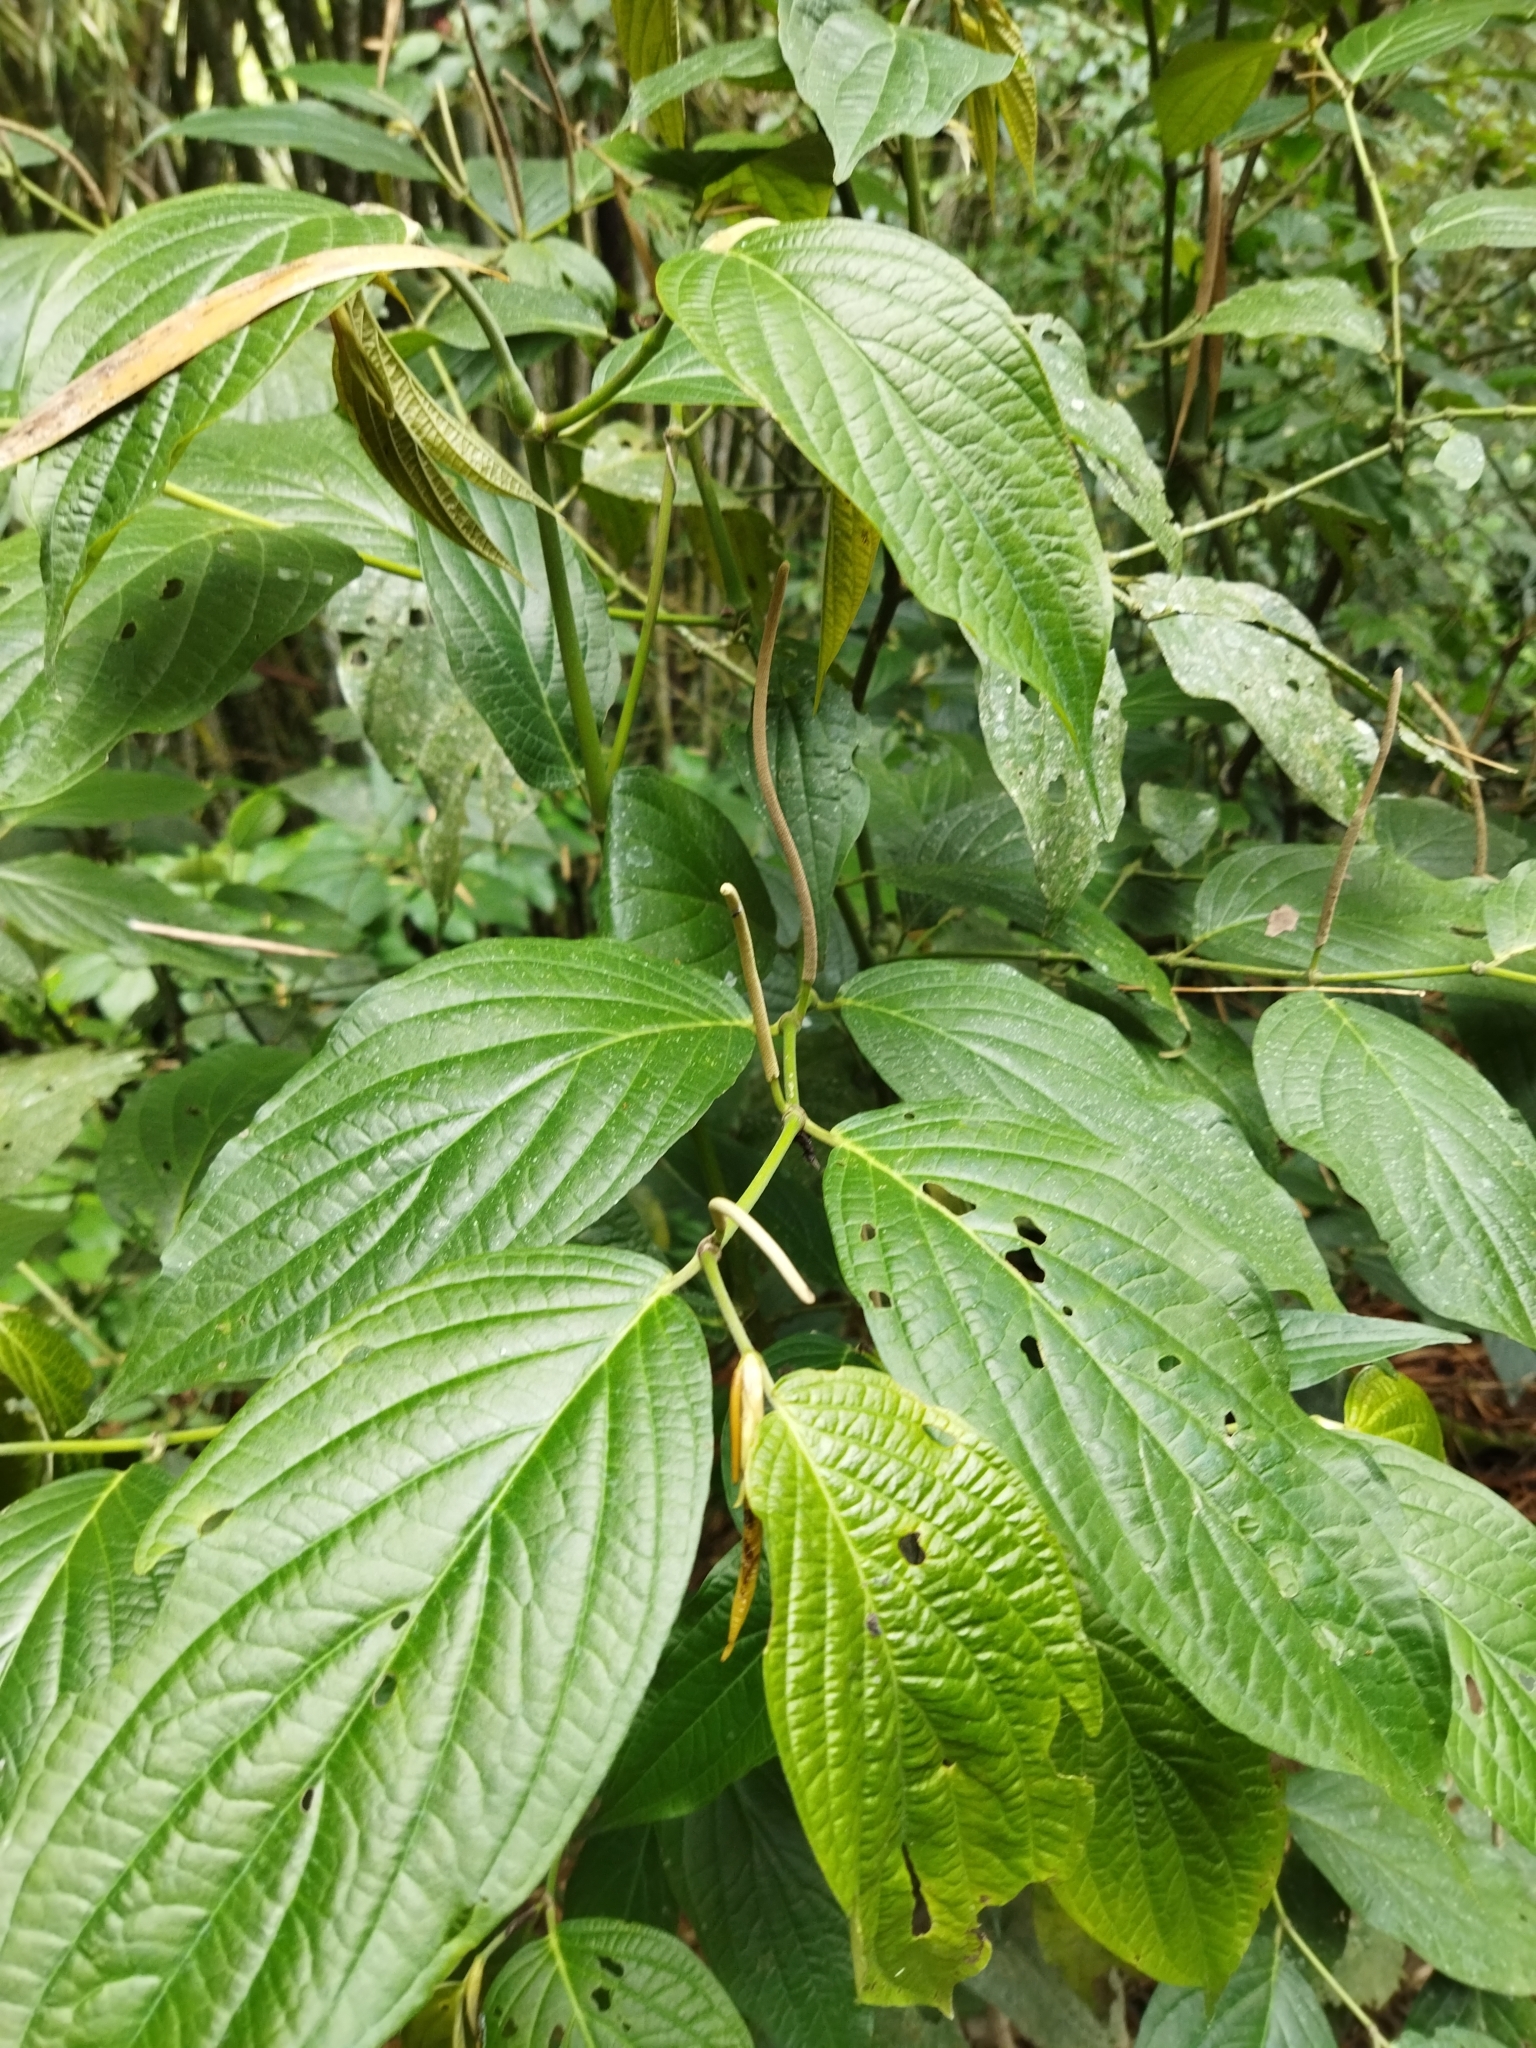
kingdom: Plantae
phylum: Tracheophyta
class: Magnoliopsida
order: Piperales
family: Piperaceae
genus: Piper
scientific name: Piper hispidum
